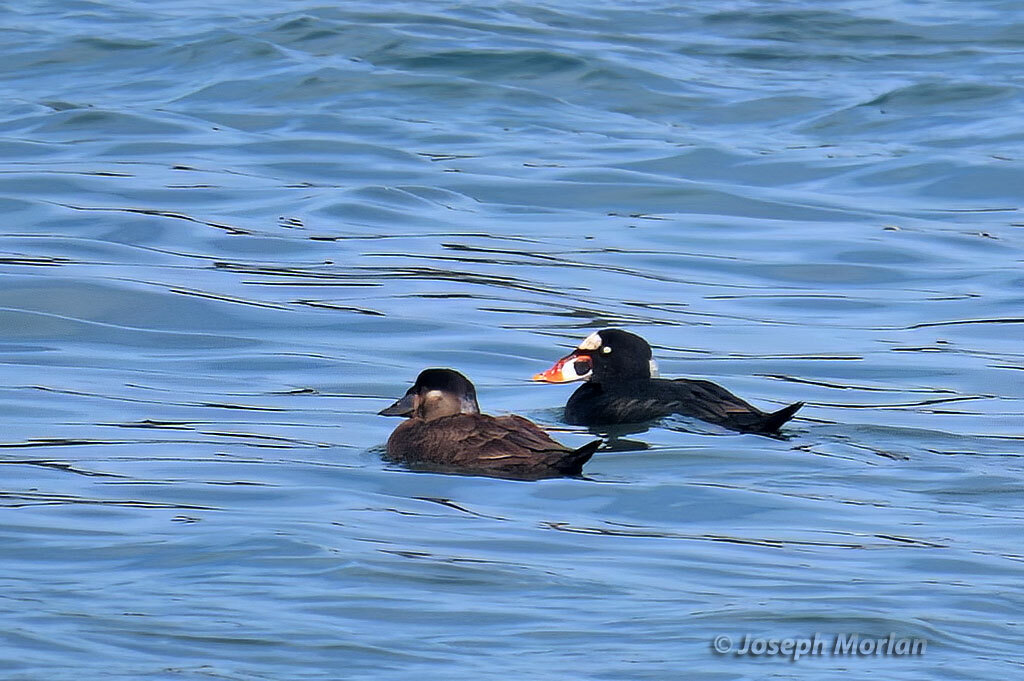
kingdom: Animalia
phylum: Chordata
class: Aves
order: Anseriformes
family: Anatidae
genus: Melanitta
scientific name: Melanitta perspicillata
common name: Surf scoter
